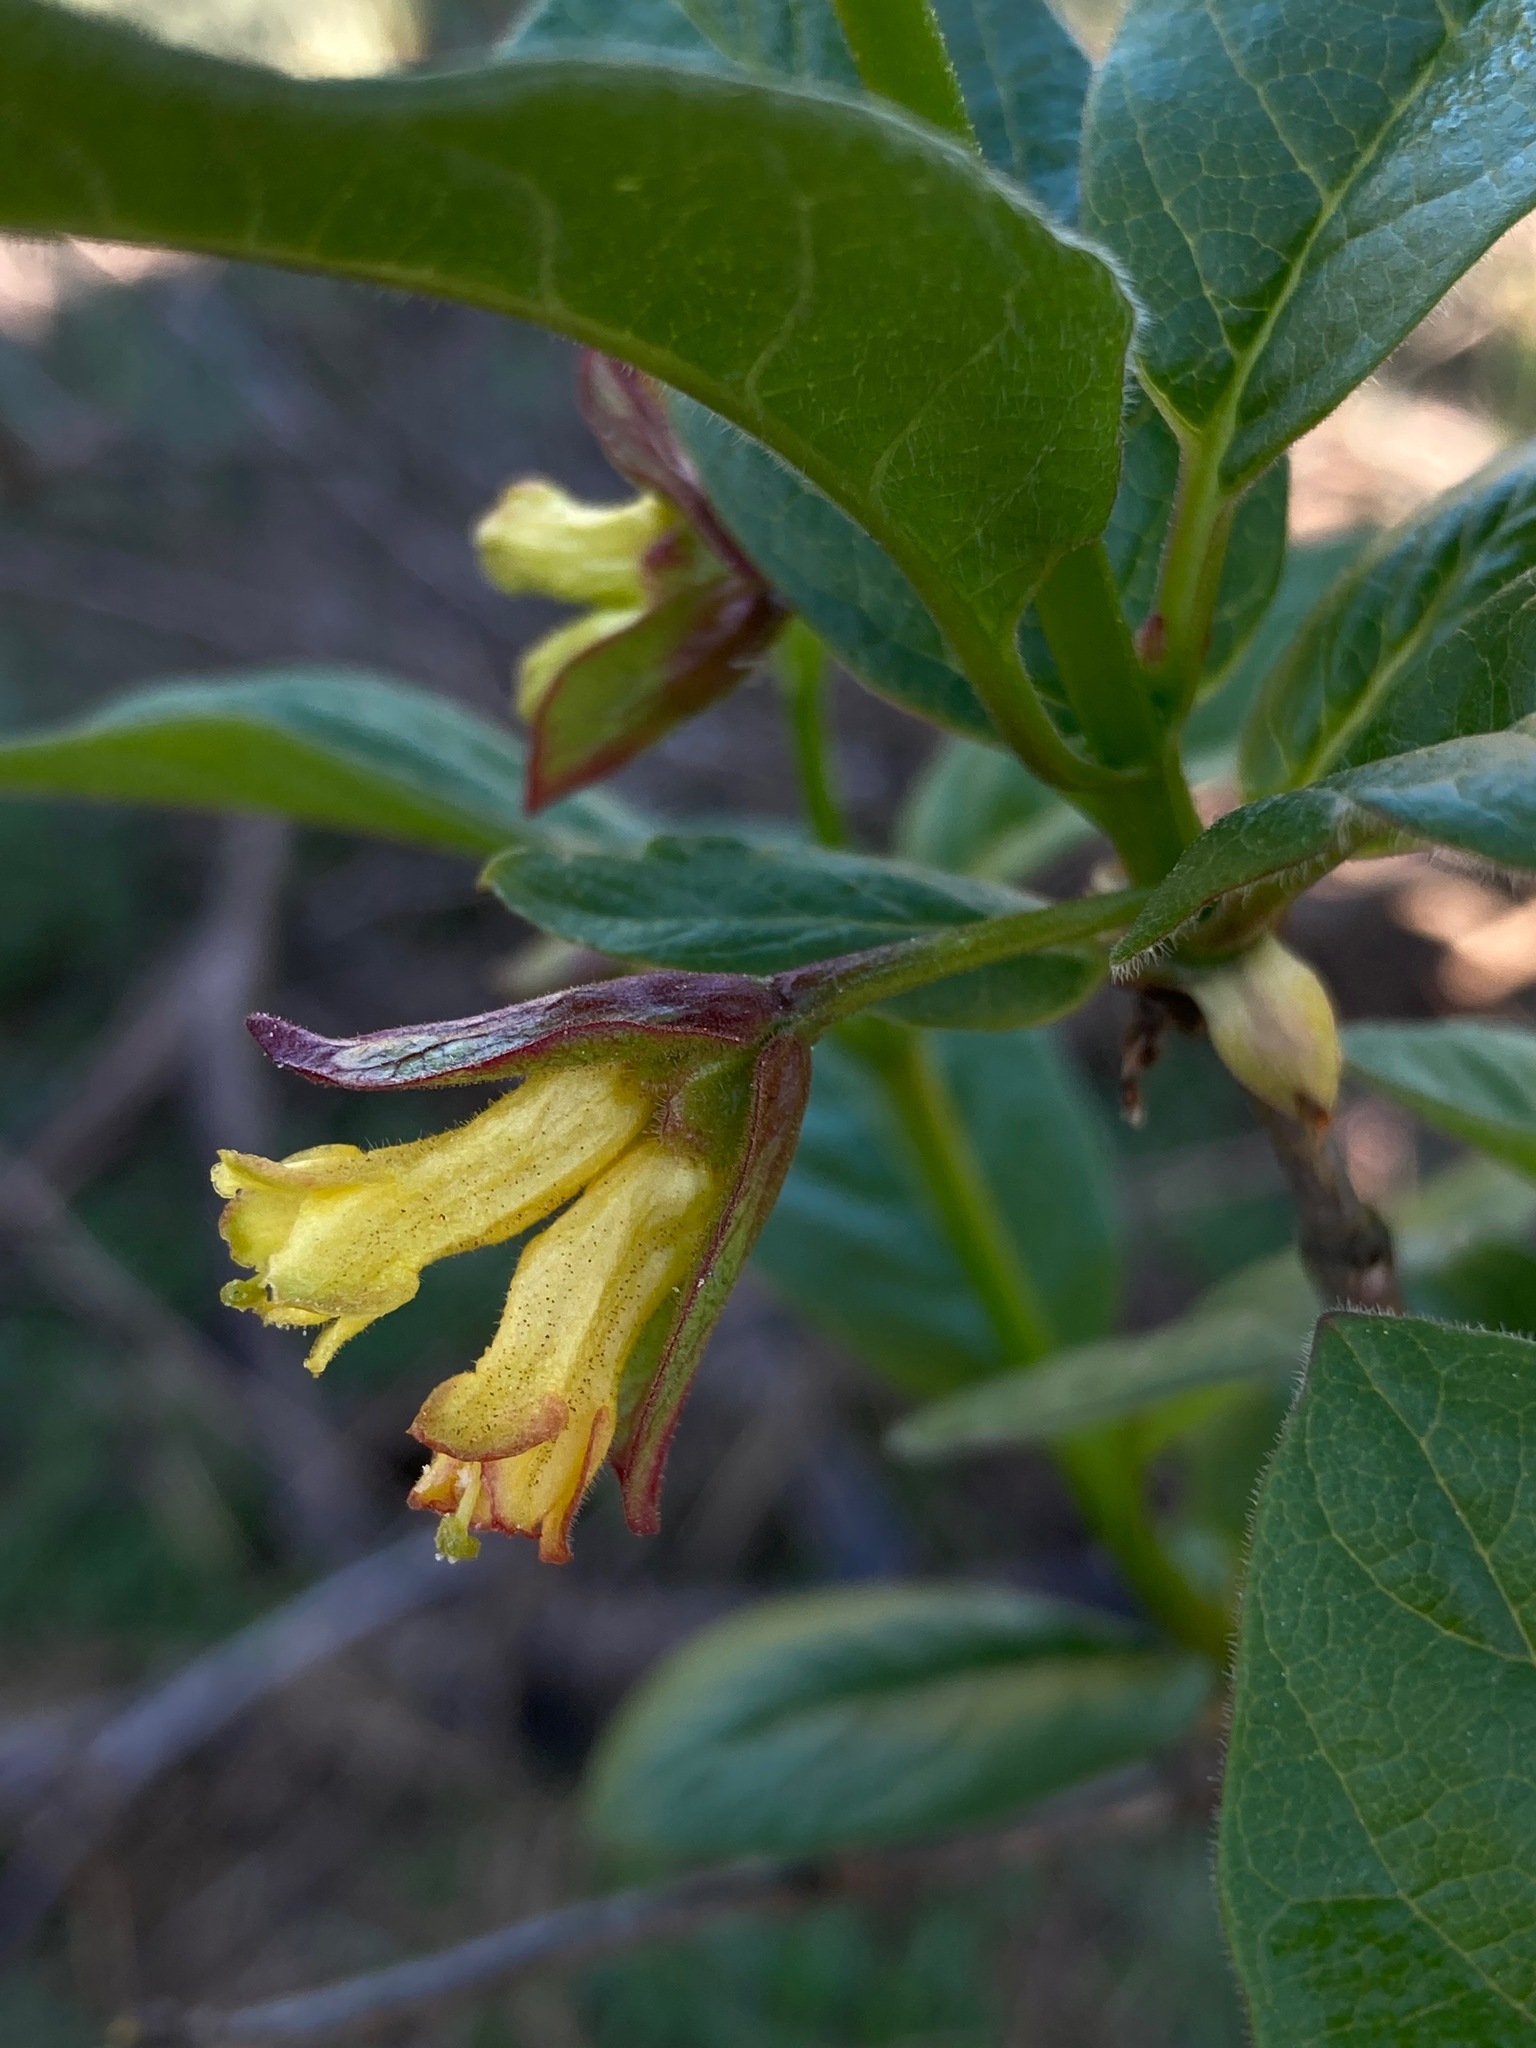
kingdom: Plantae
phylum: Tracheophyta
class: Magnoliopsida
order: Dipsacales
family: Caprifoliaceae
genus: Lonicera
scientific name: Lonicera involucrata
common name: Californian honeysuckle
